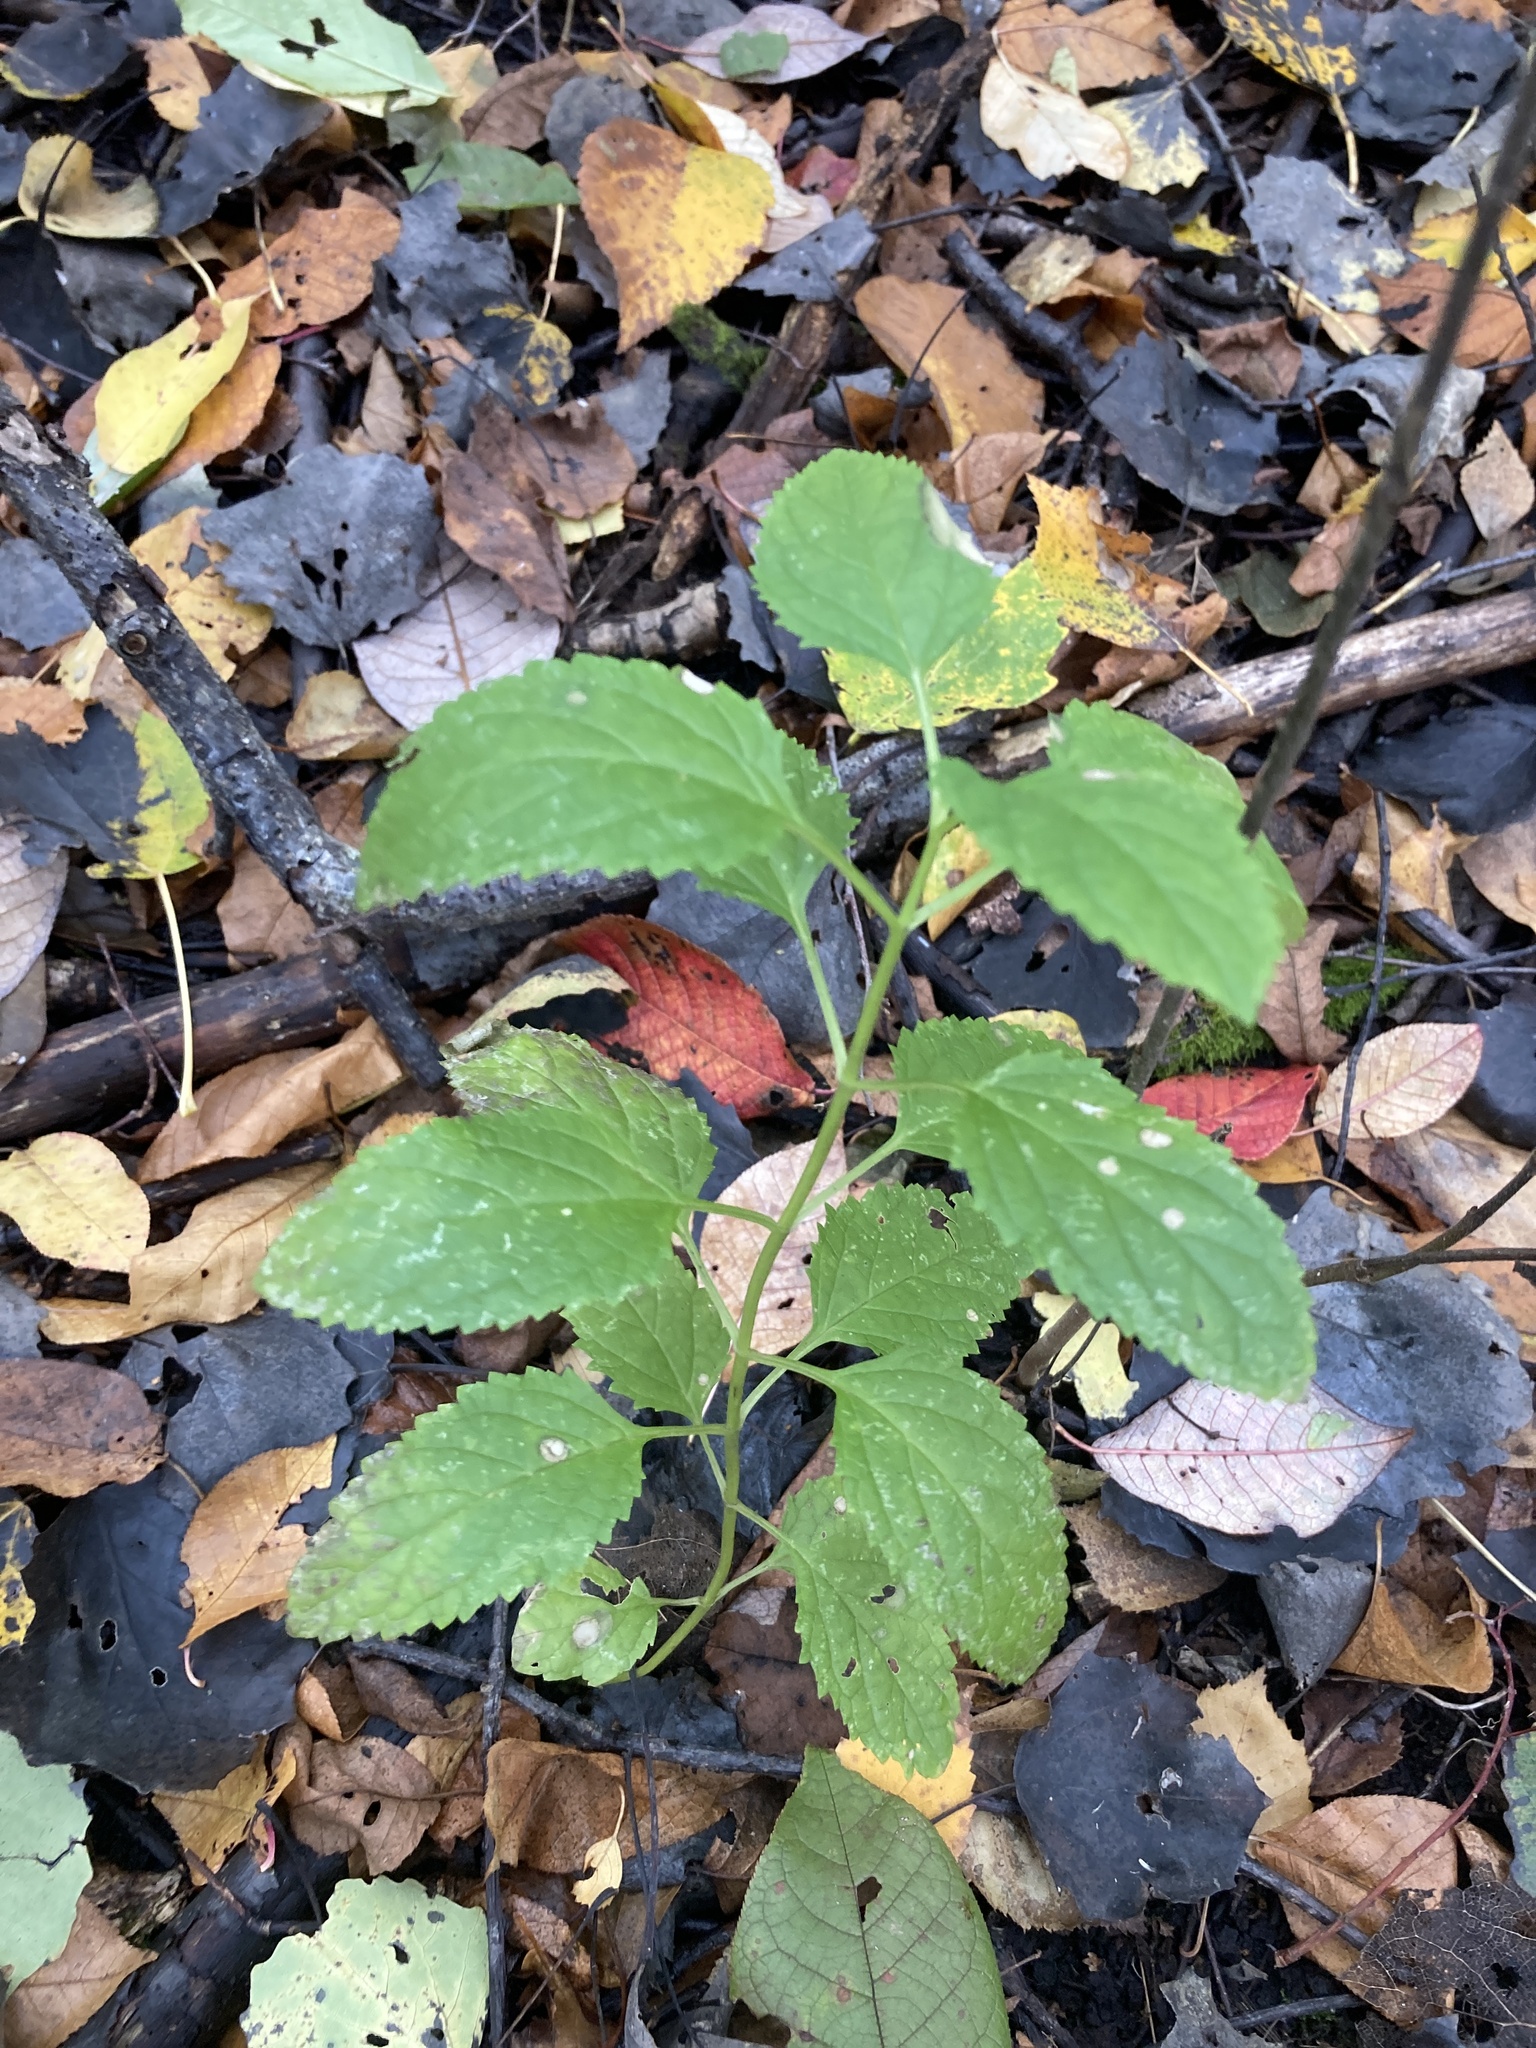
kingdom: Plantae
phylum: Tracheophyta
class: Magnoliopsida
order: Lamiales
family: Scrophulariaceae
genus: Scrophularia
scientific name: Scrophularia nodosa
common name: Common figwort
